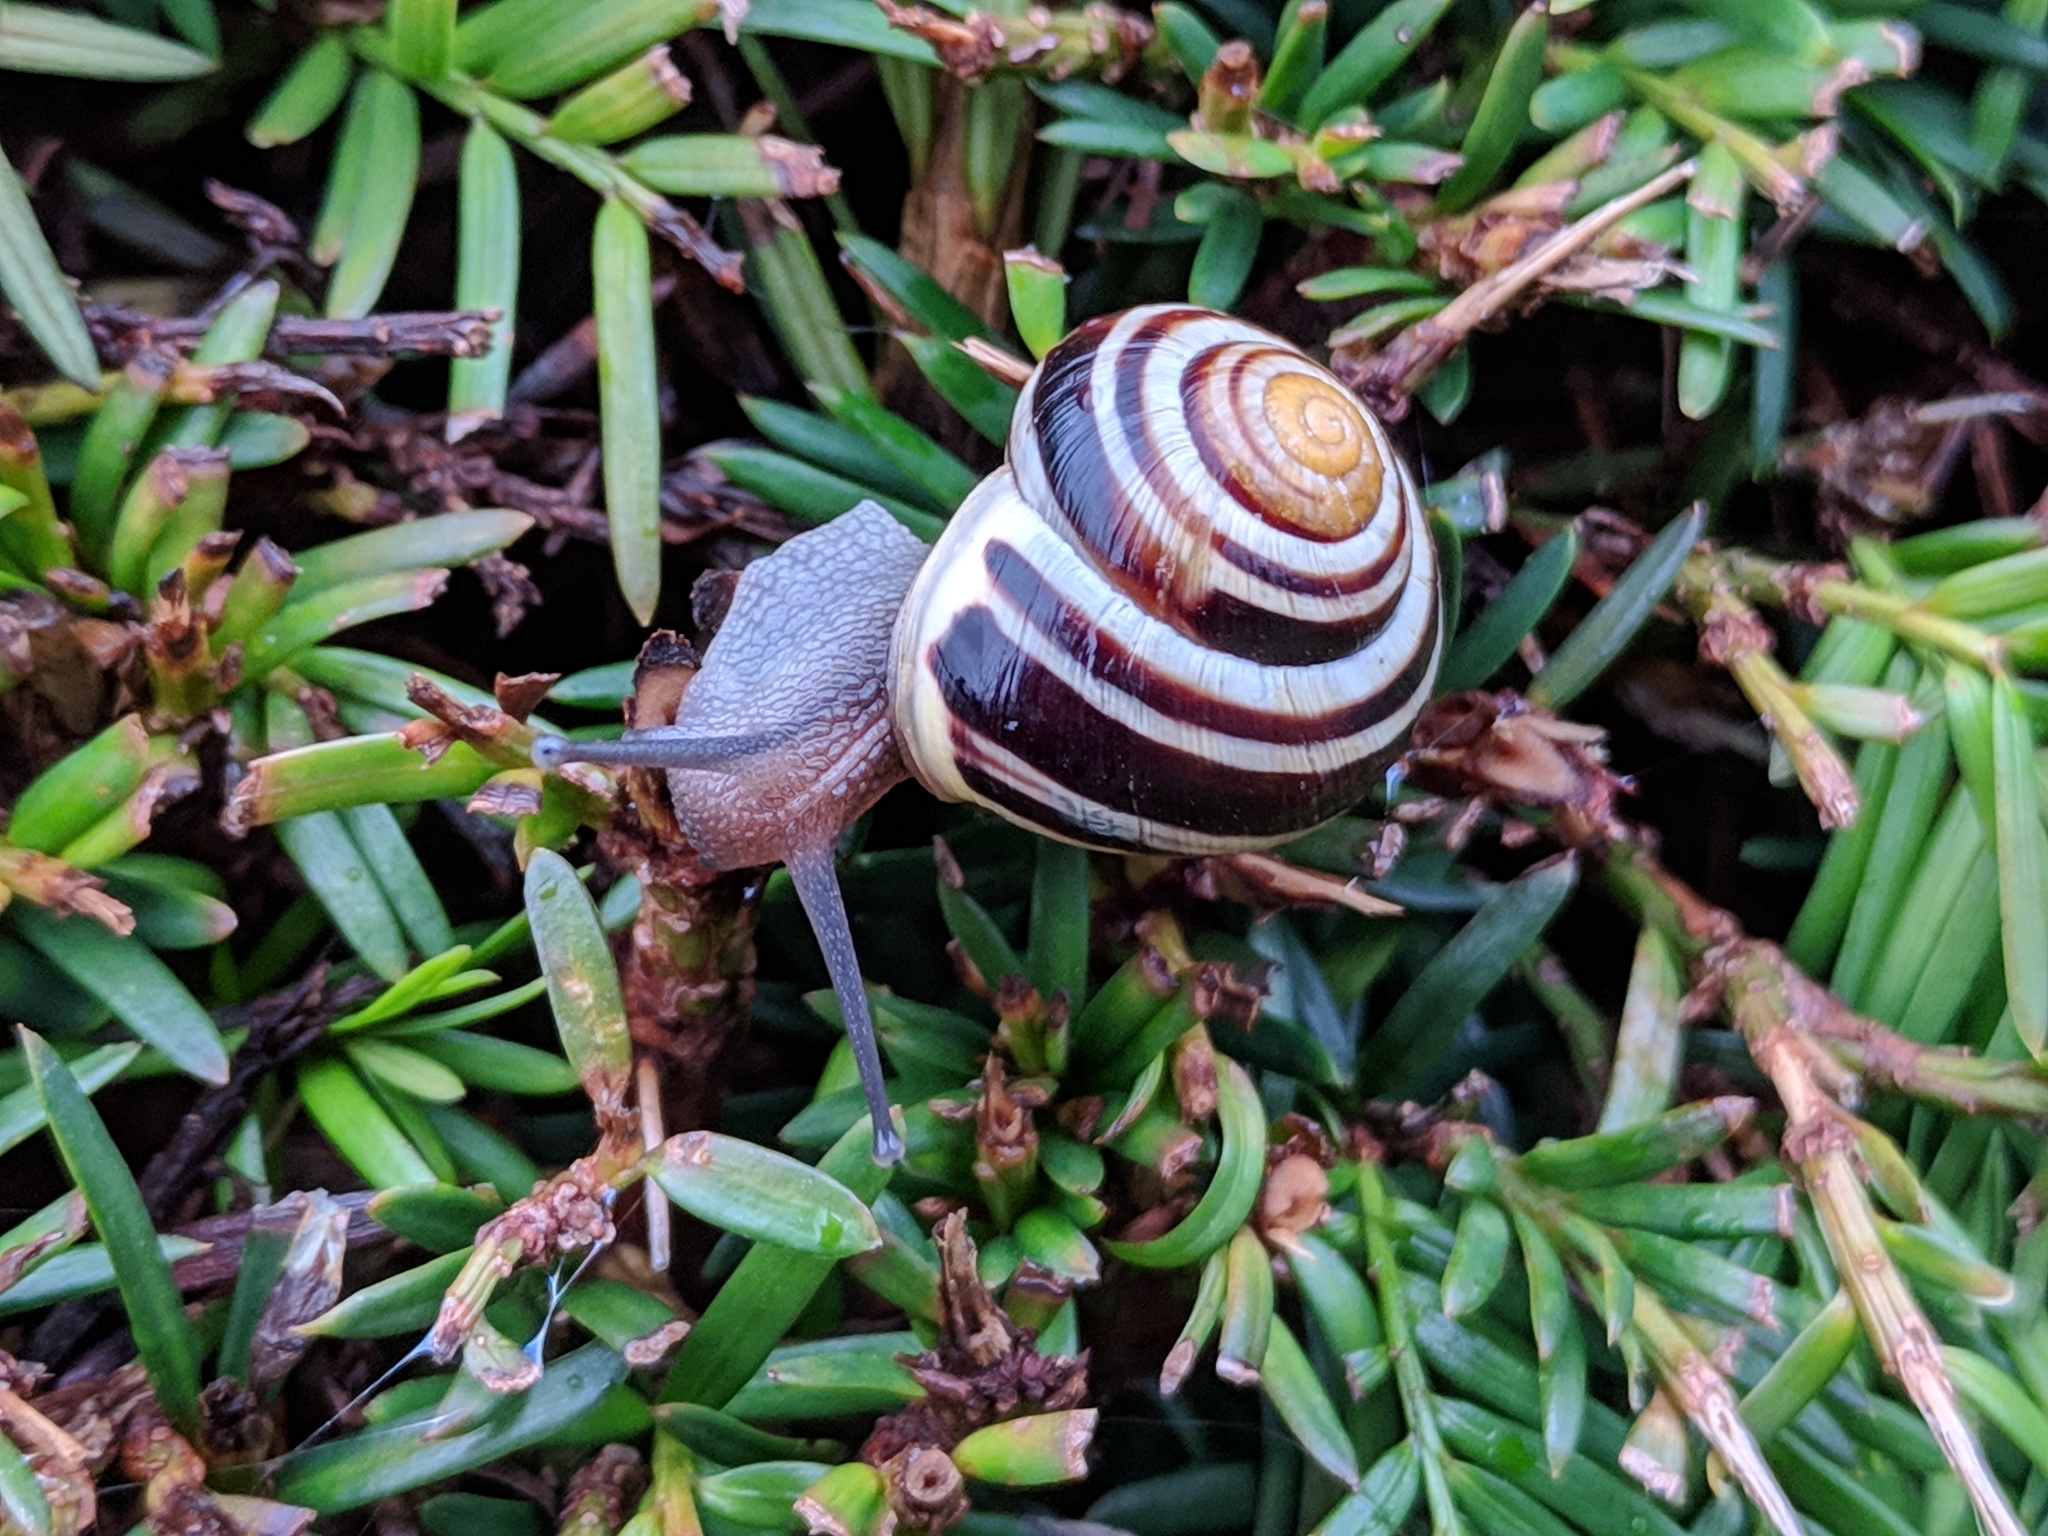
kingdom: Animalia
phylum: Mollusca
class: Gastropoda
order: Stylommatophora
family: Helicidae
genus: Cepaea
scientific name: Cepaea hortensis
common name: White-lip gardensnail
